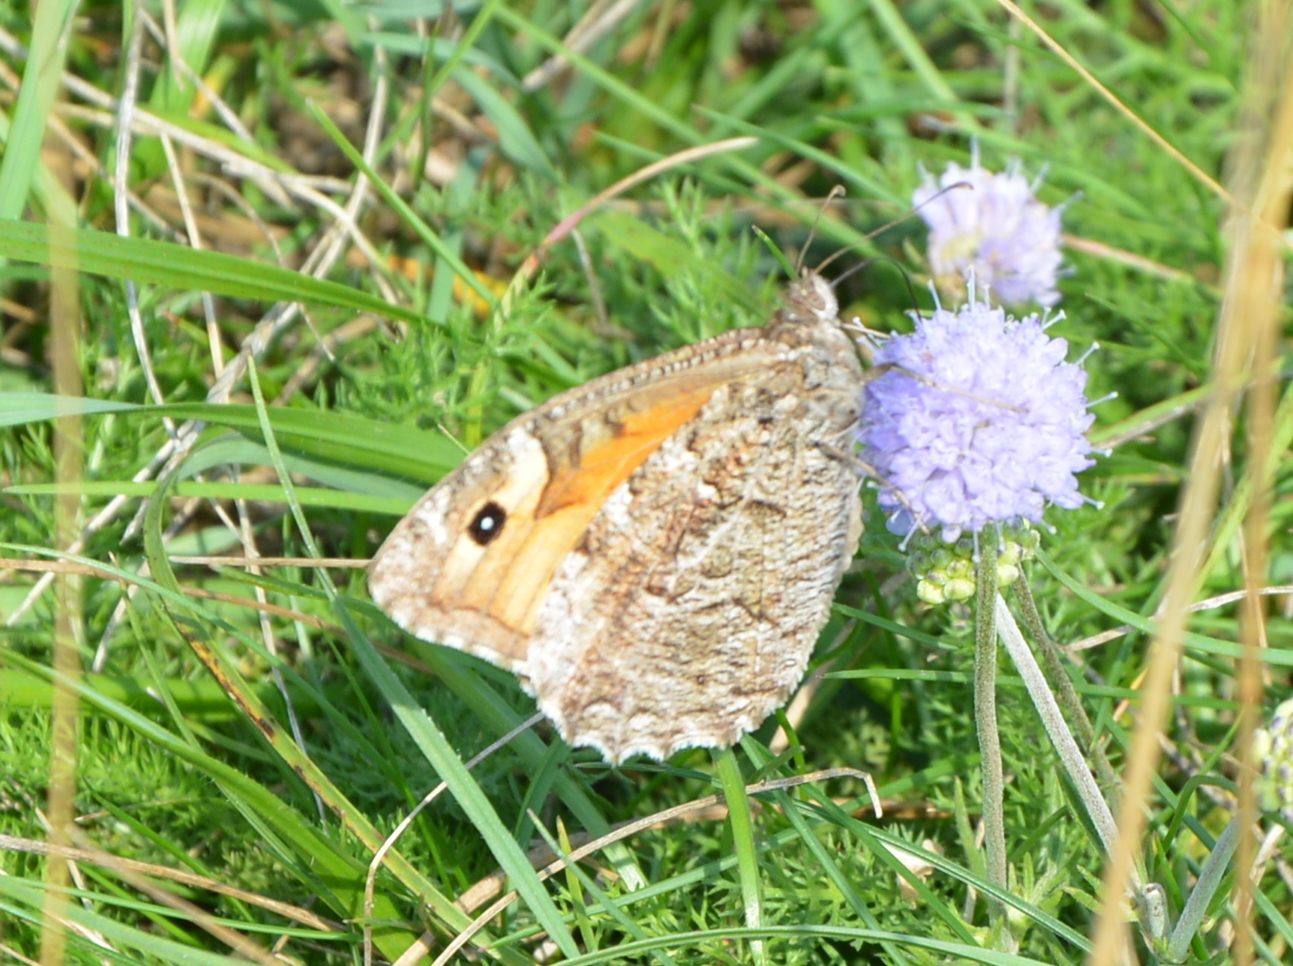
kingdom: Animalia
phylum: Arthropoda
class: Insecta
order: Lepidoptera
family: Nymphalidae
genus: Hipparchia
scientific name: Hipparchia semele
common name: Grayling
